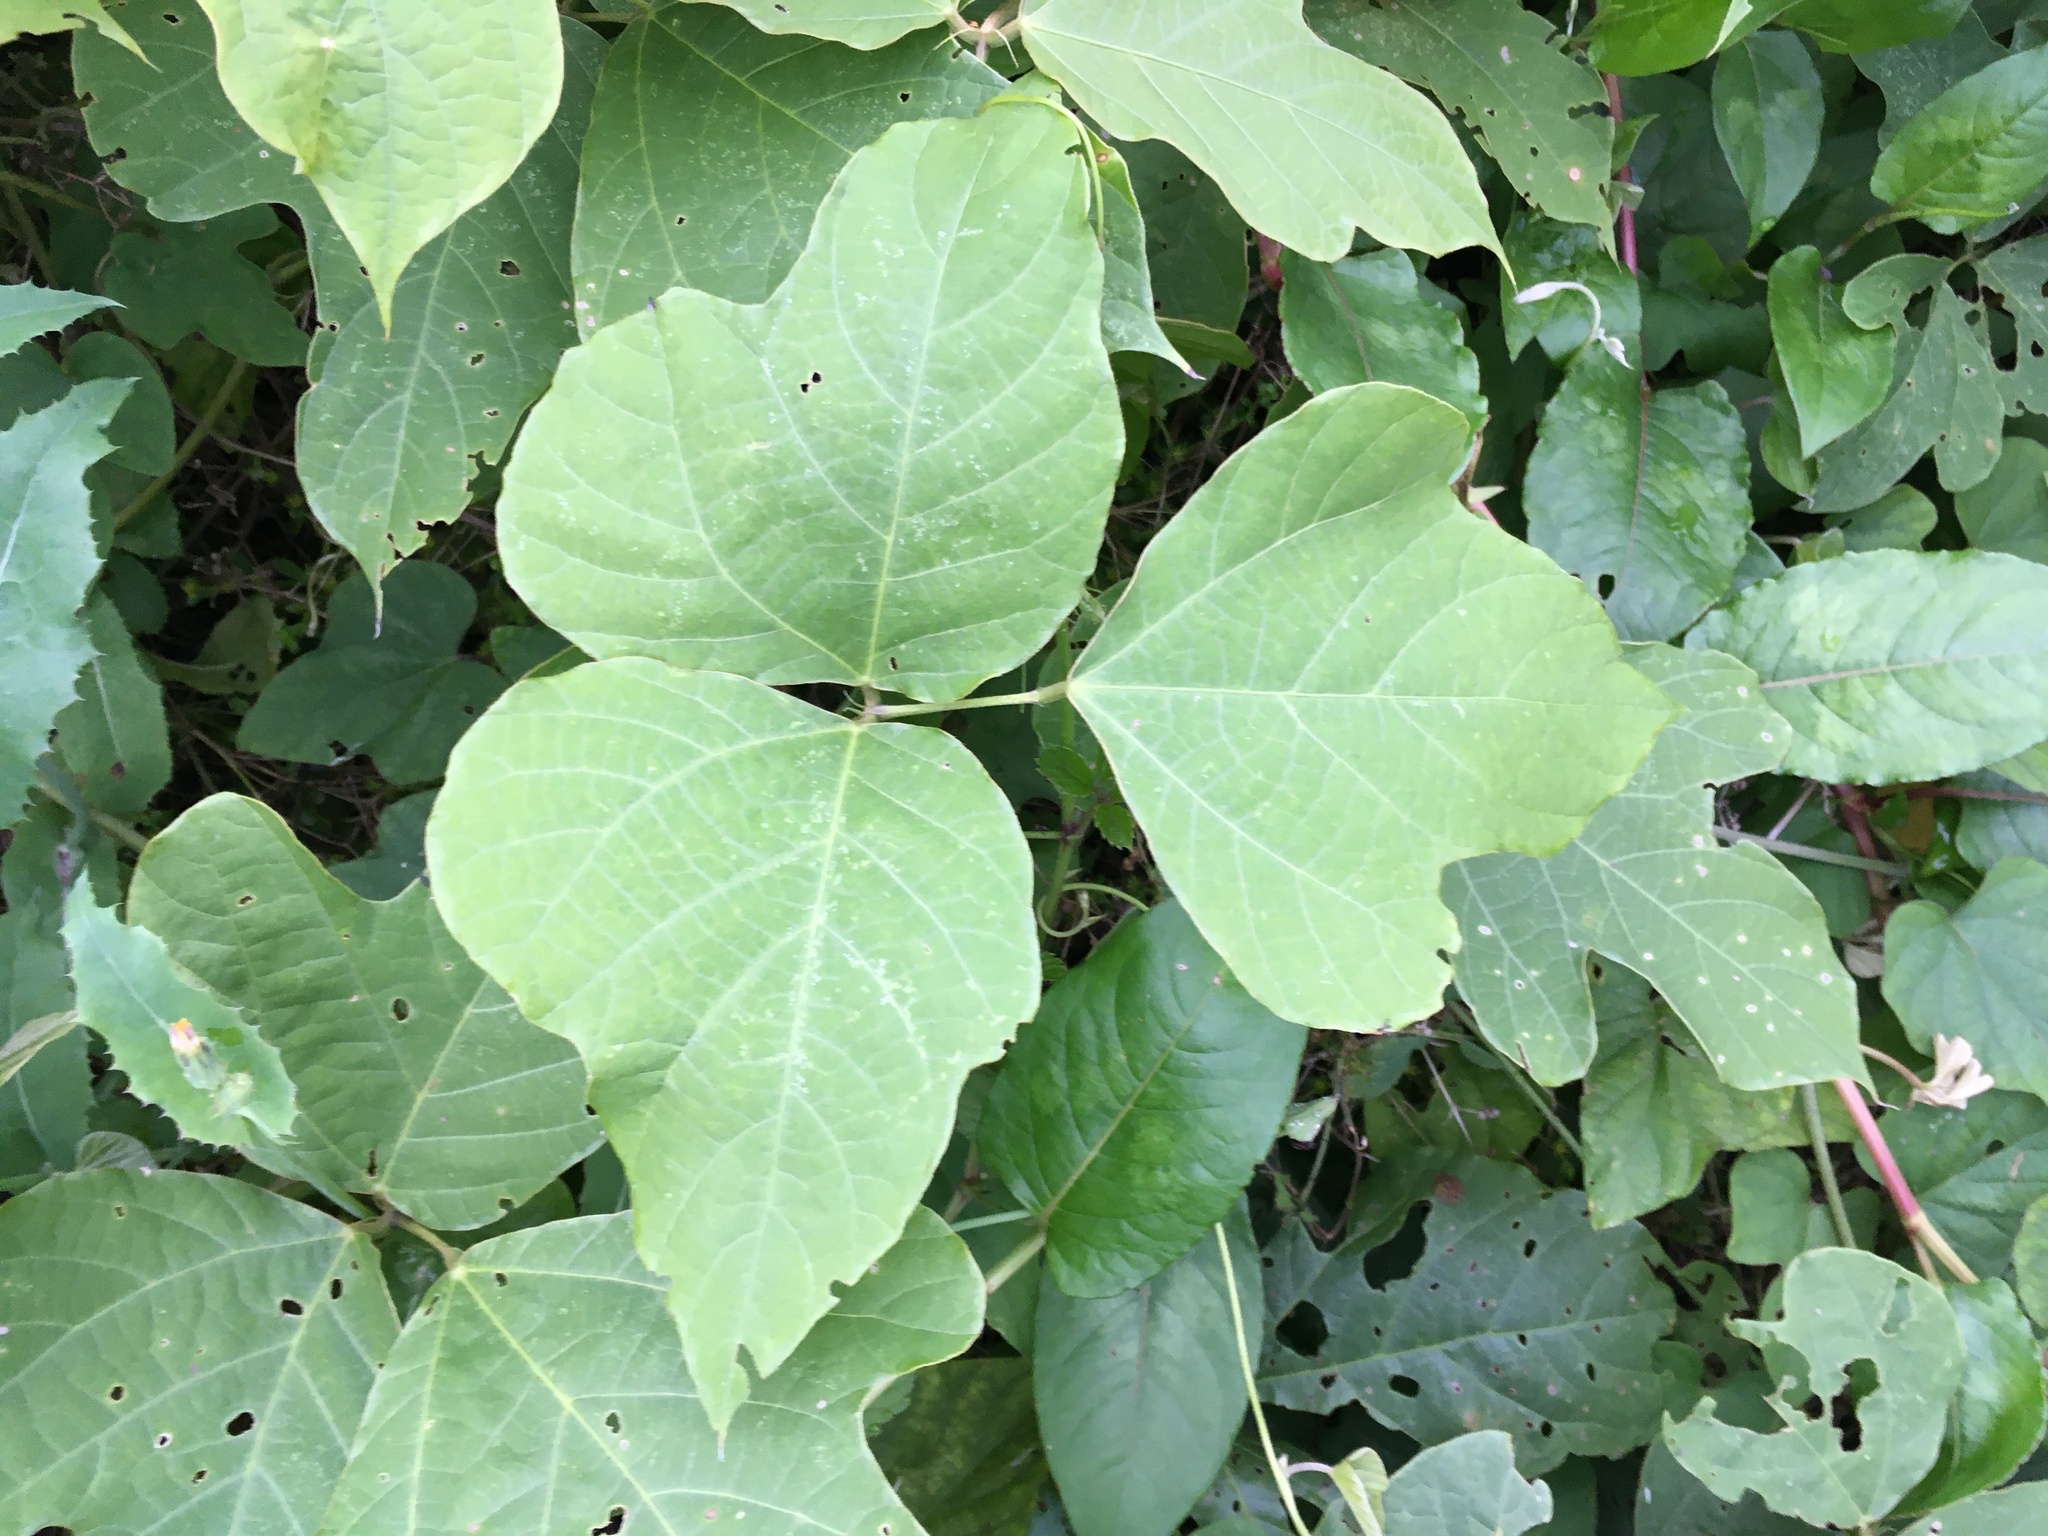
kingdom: Plantae
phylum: Tracheophyta
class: Magnoliopsida
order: Fabales
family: Fabaceae
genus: Pueraria
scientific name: Pueraria montana
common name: Kudzu
